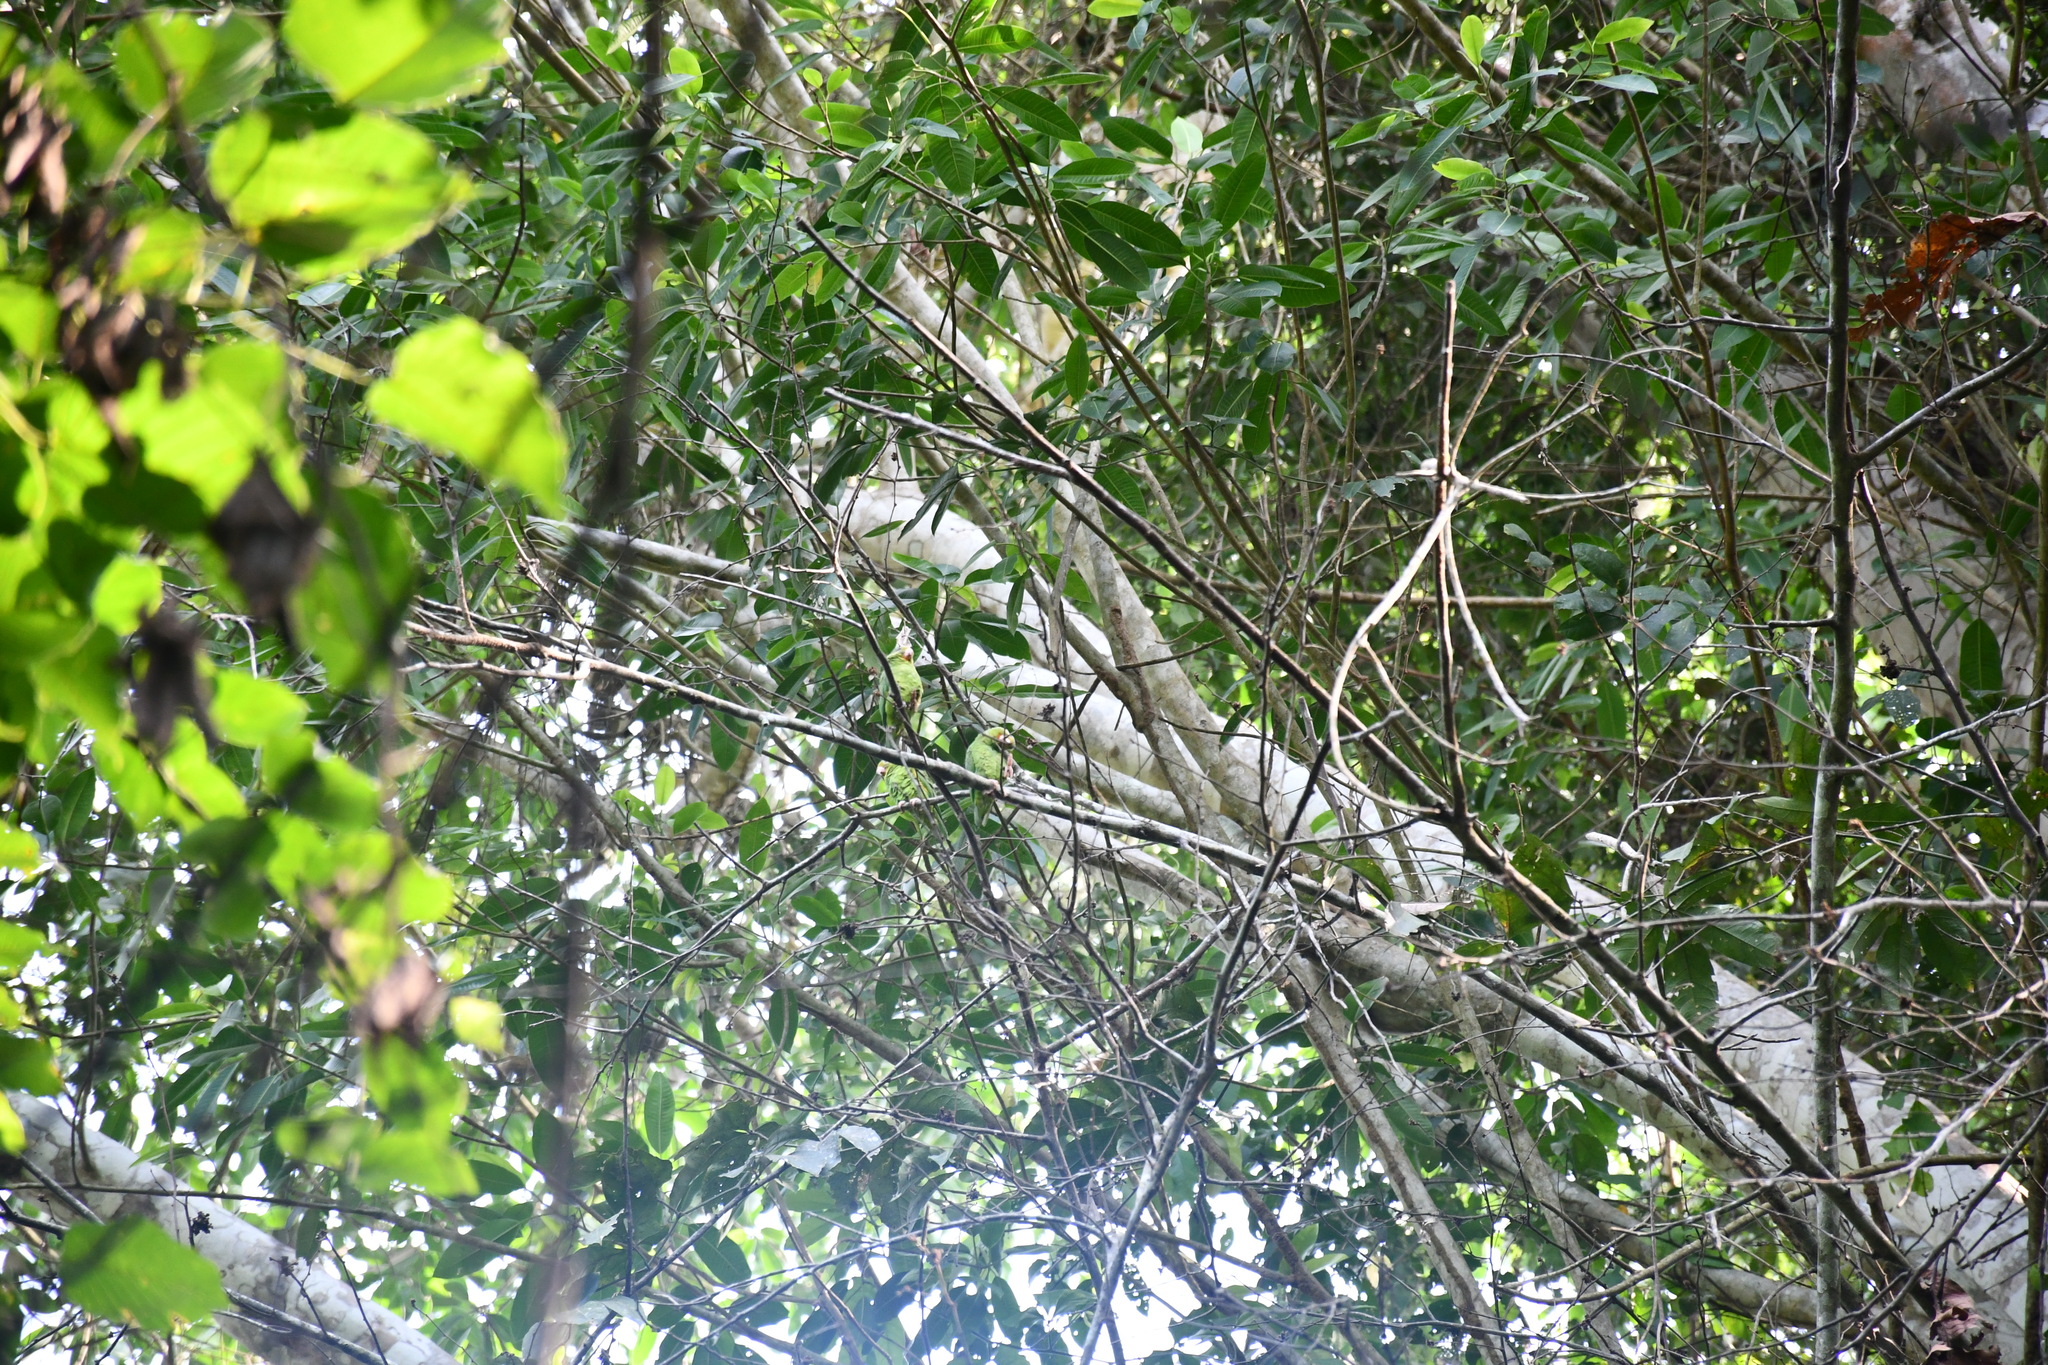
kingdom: Animalia
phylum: Chordata
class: Aves
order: Psittaciformes
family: Psittacidae
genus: Brotogeris
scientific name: Brotogeris cyanoptera
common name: Cobalt-winged parakeet
